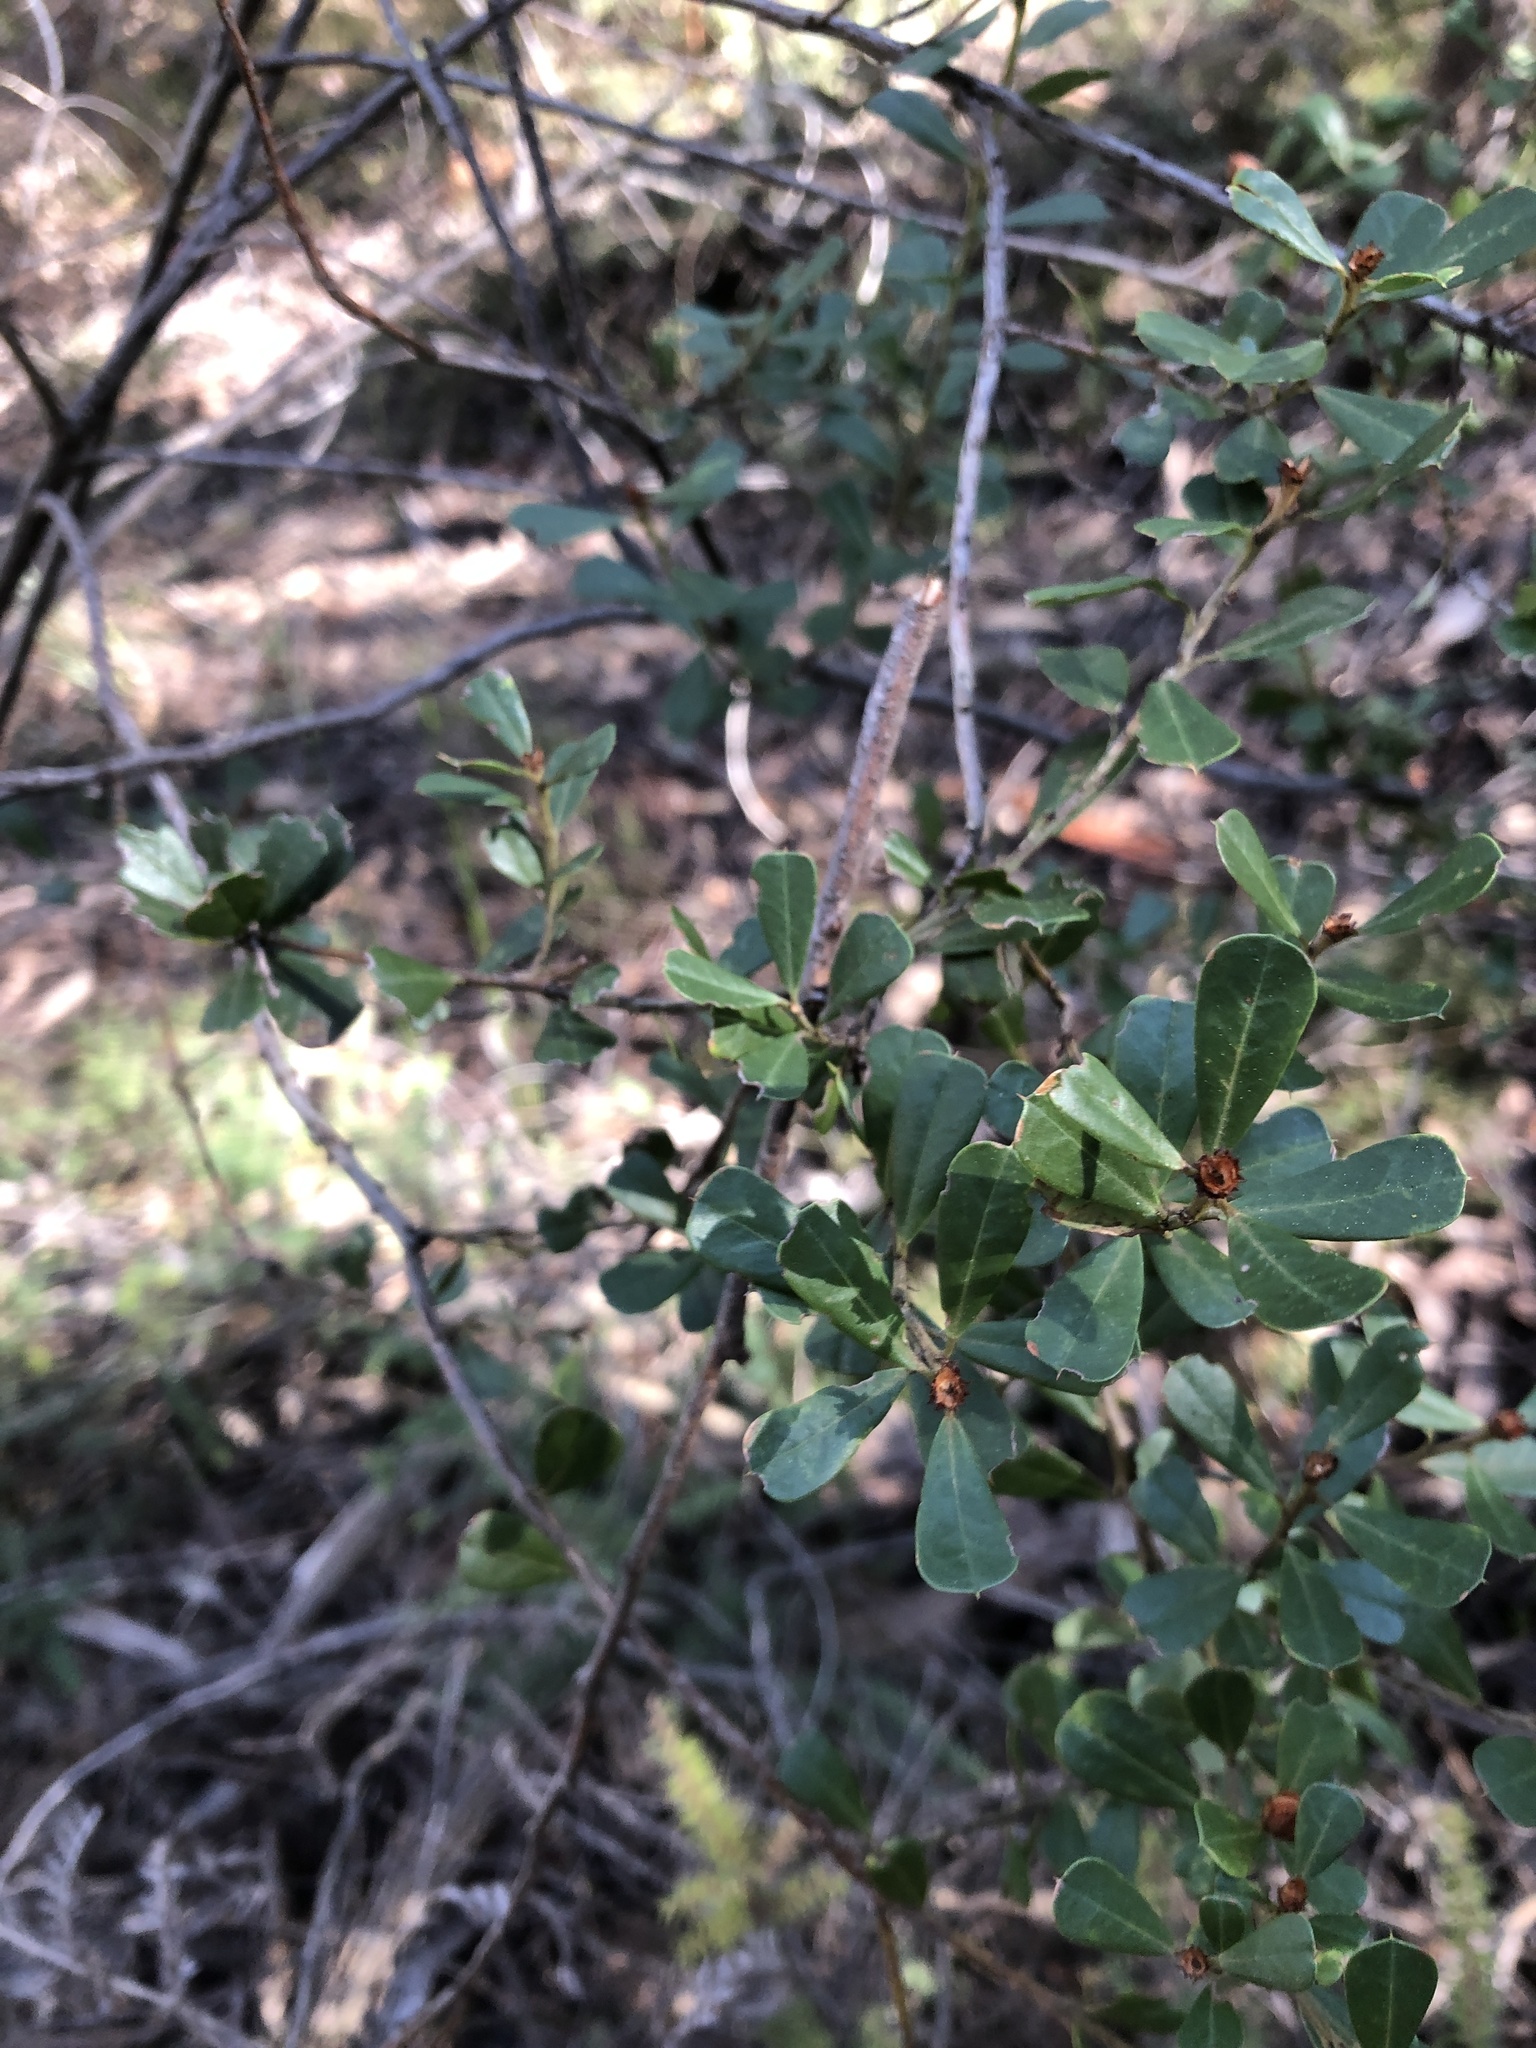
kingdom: Plantae
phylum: Tracheophyta
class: Magnoliopsida
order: Fabales
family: Fabaceae
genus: Pultenaea
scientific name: Pultenaea daphnoides
